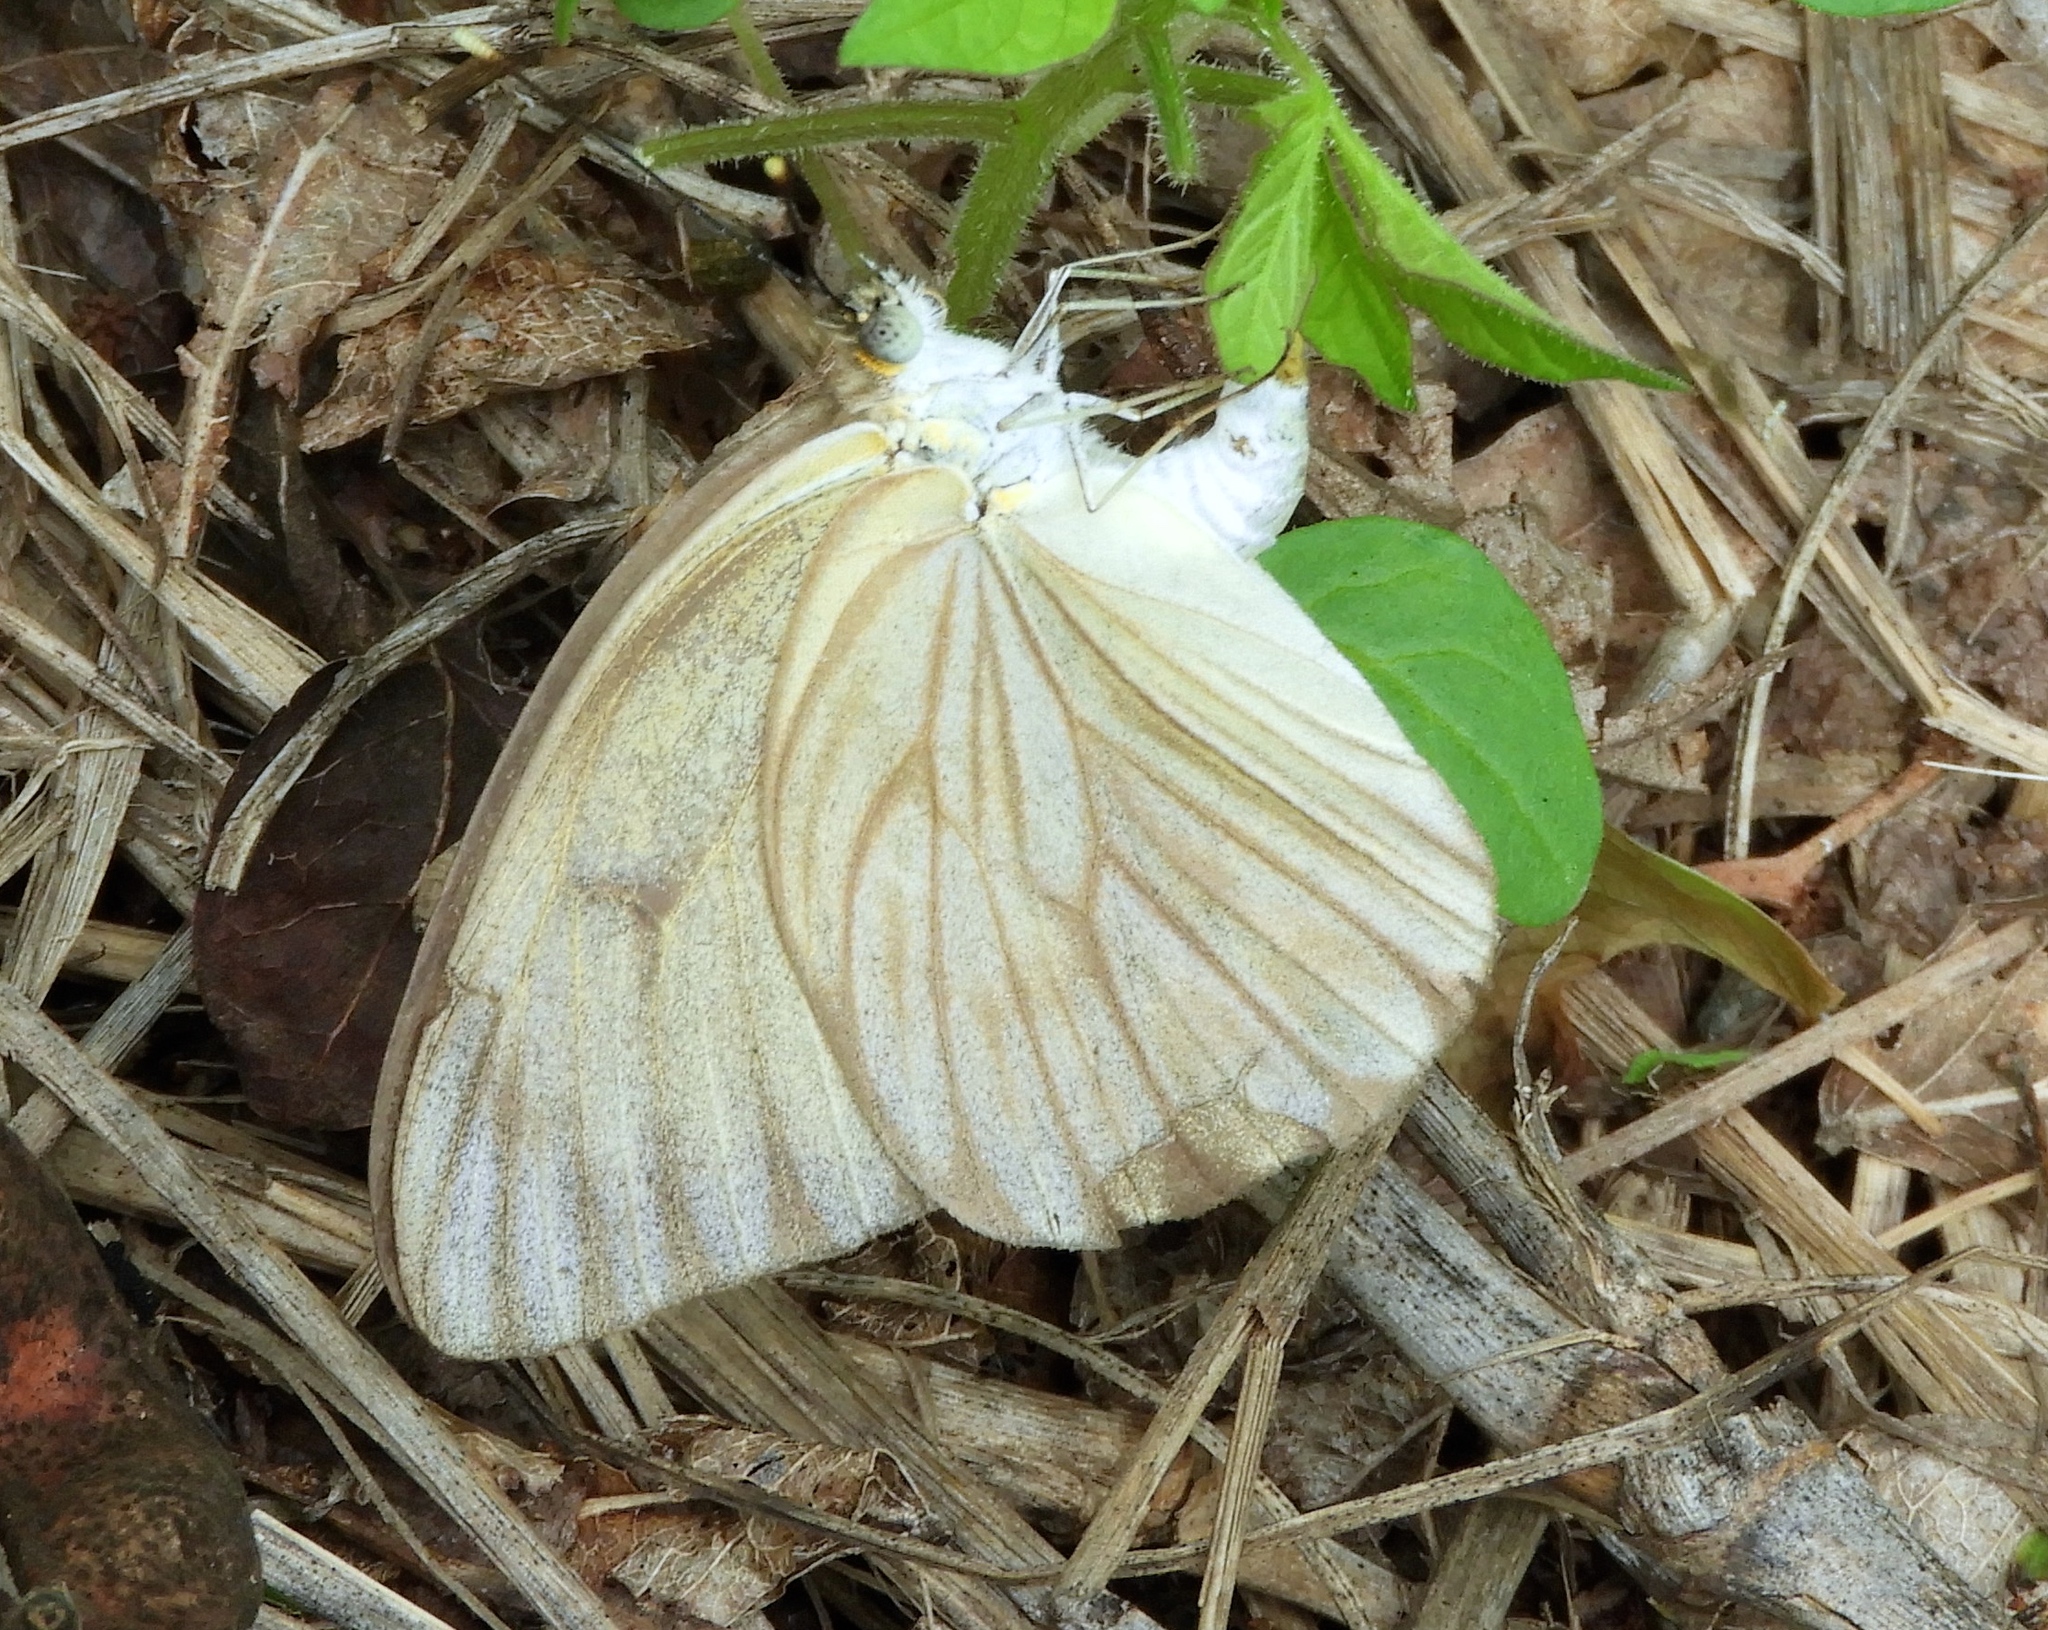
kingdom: Animalia
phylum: Arthropoda
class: Insecta
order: Lepidoptera
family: Pieridae
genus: Ascia
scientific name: Ascia monuste
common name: Great southern white
